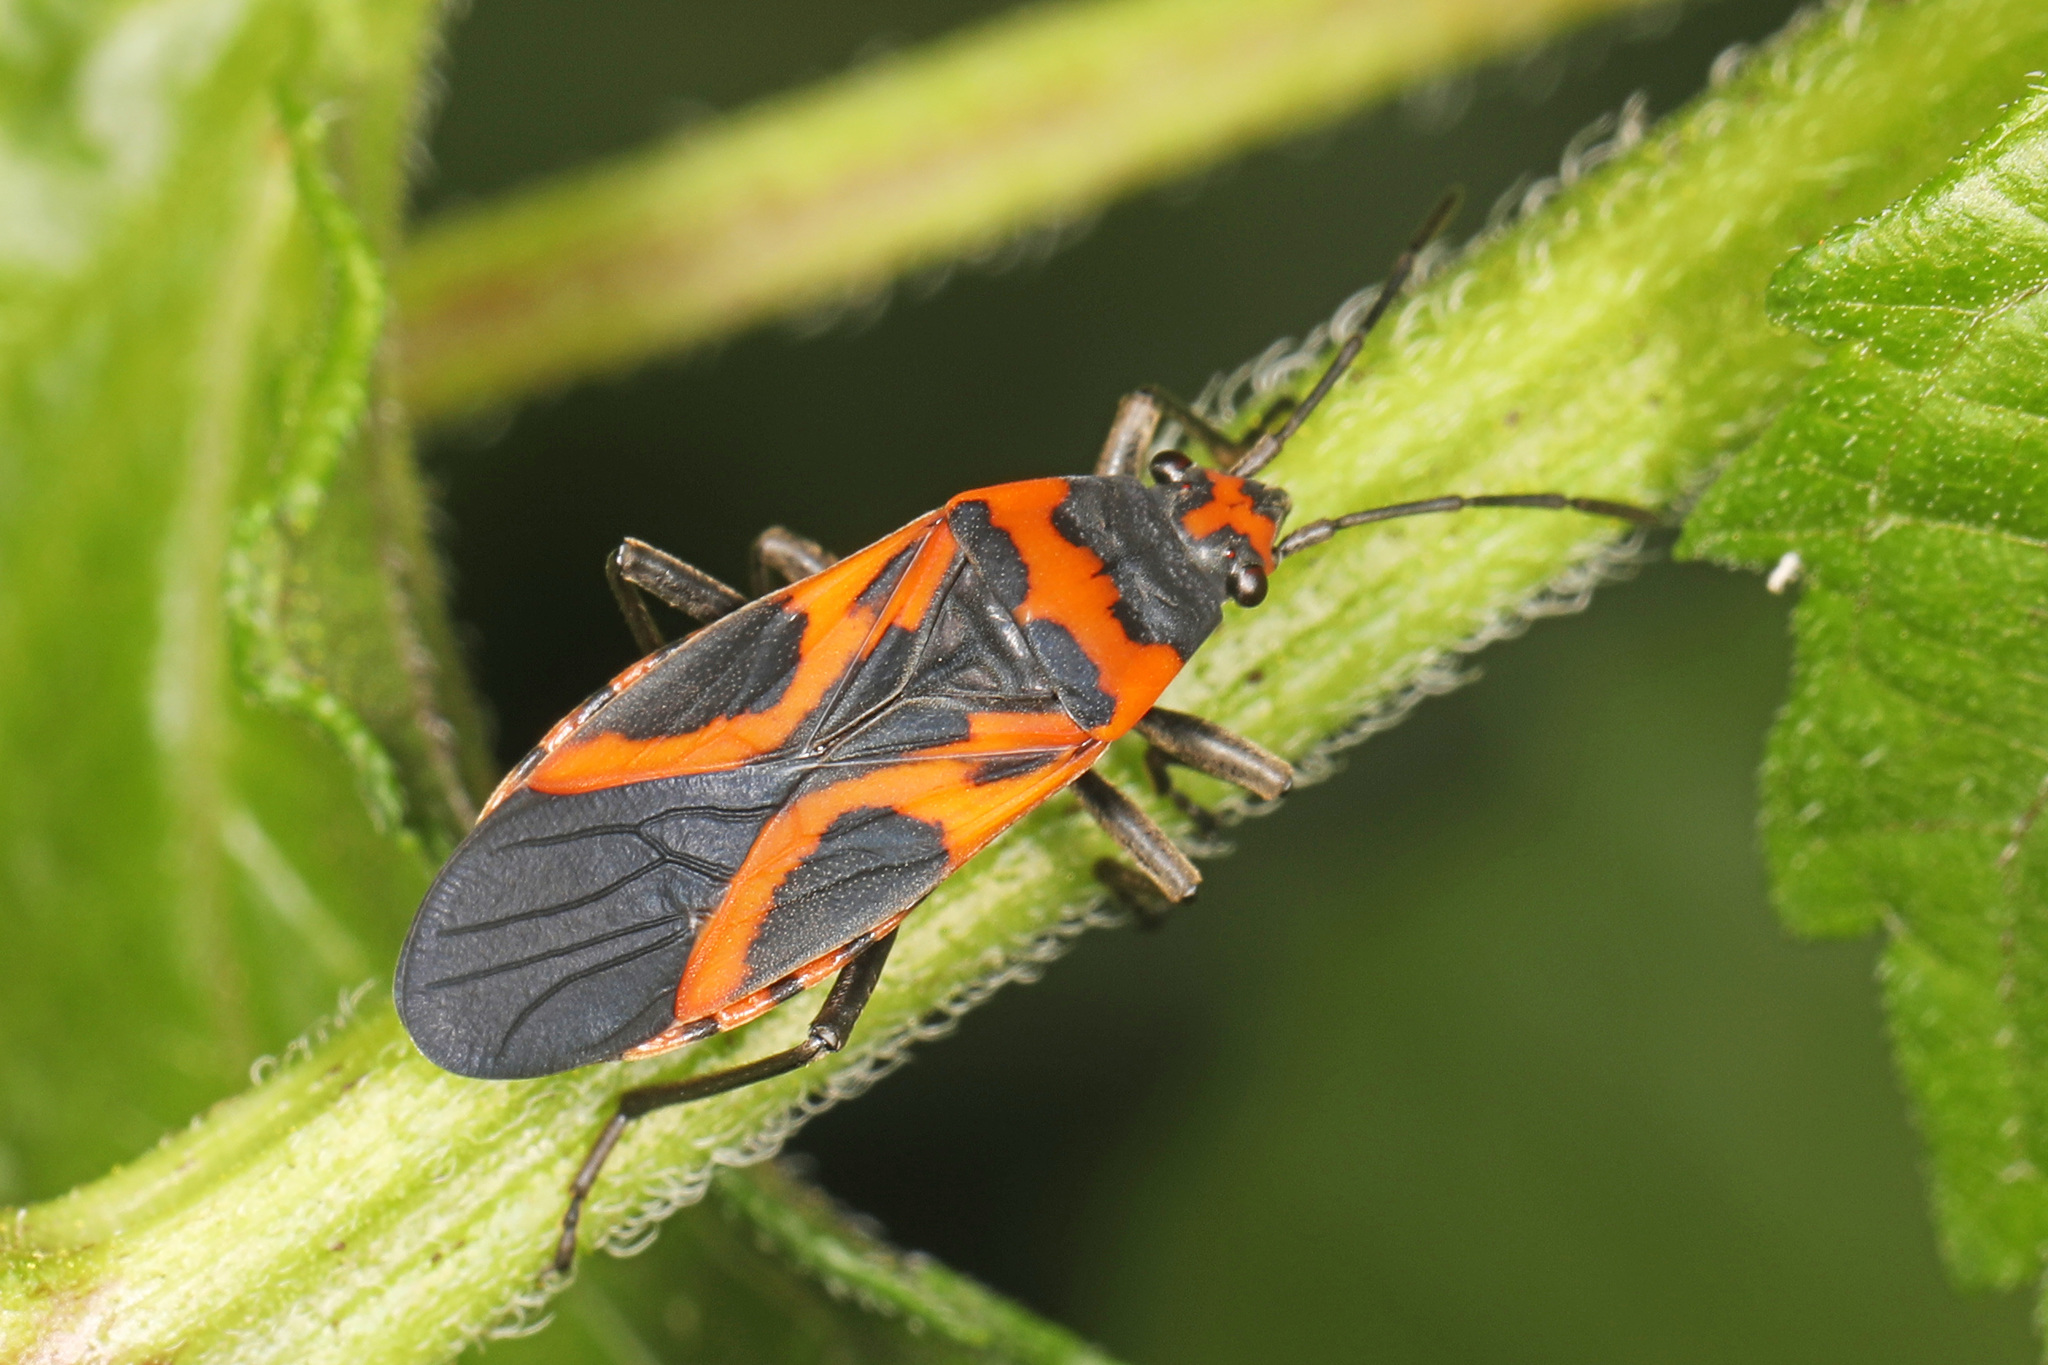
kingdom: Animalia
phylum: Arthropoda
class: Insecta
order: Hemiptera
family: Lygaeidae
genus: Lygaeus
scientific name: Lygaeus turcicus
